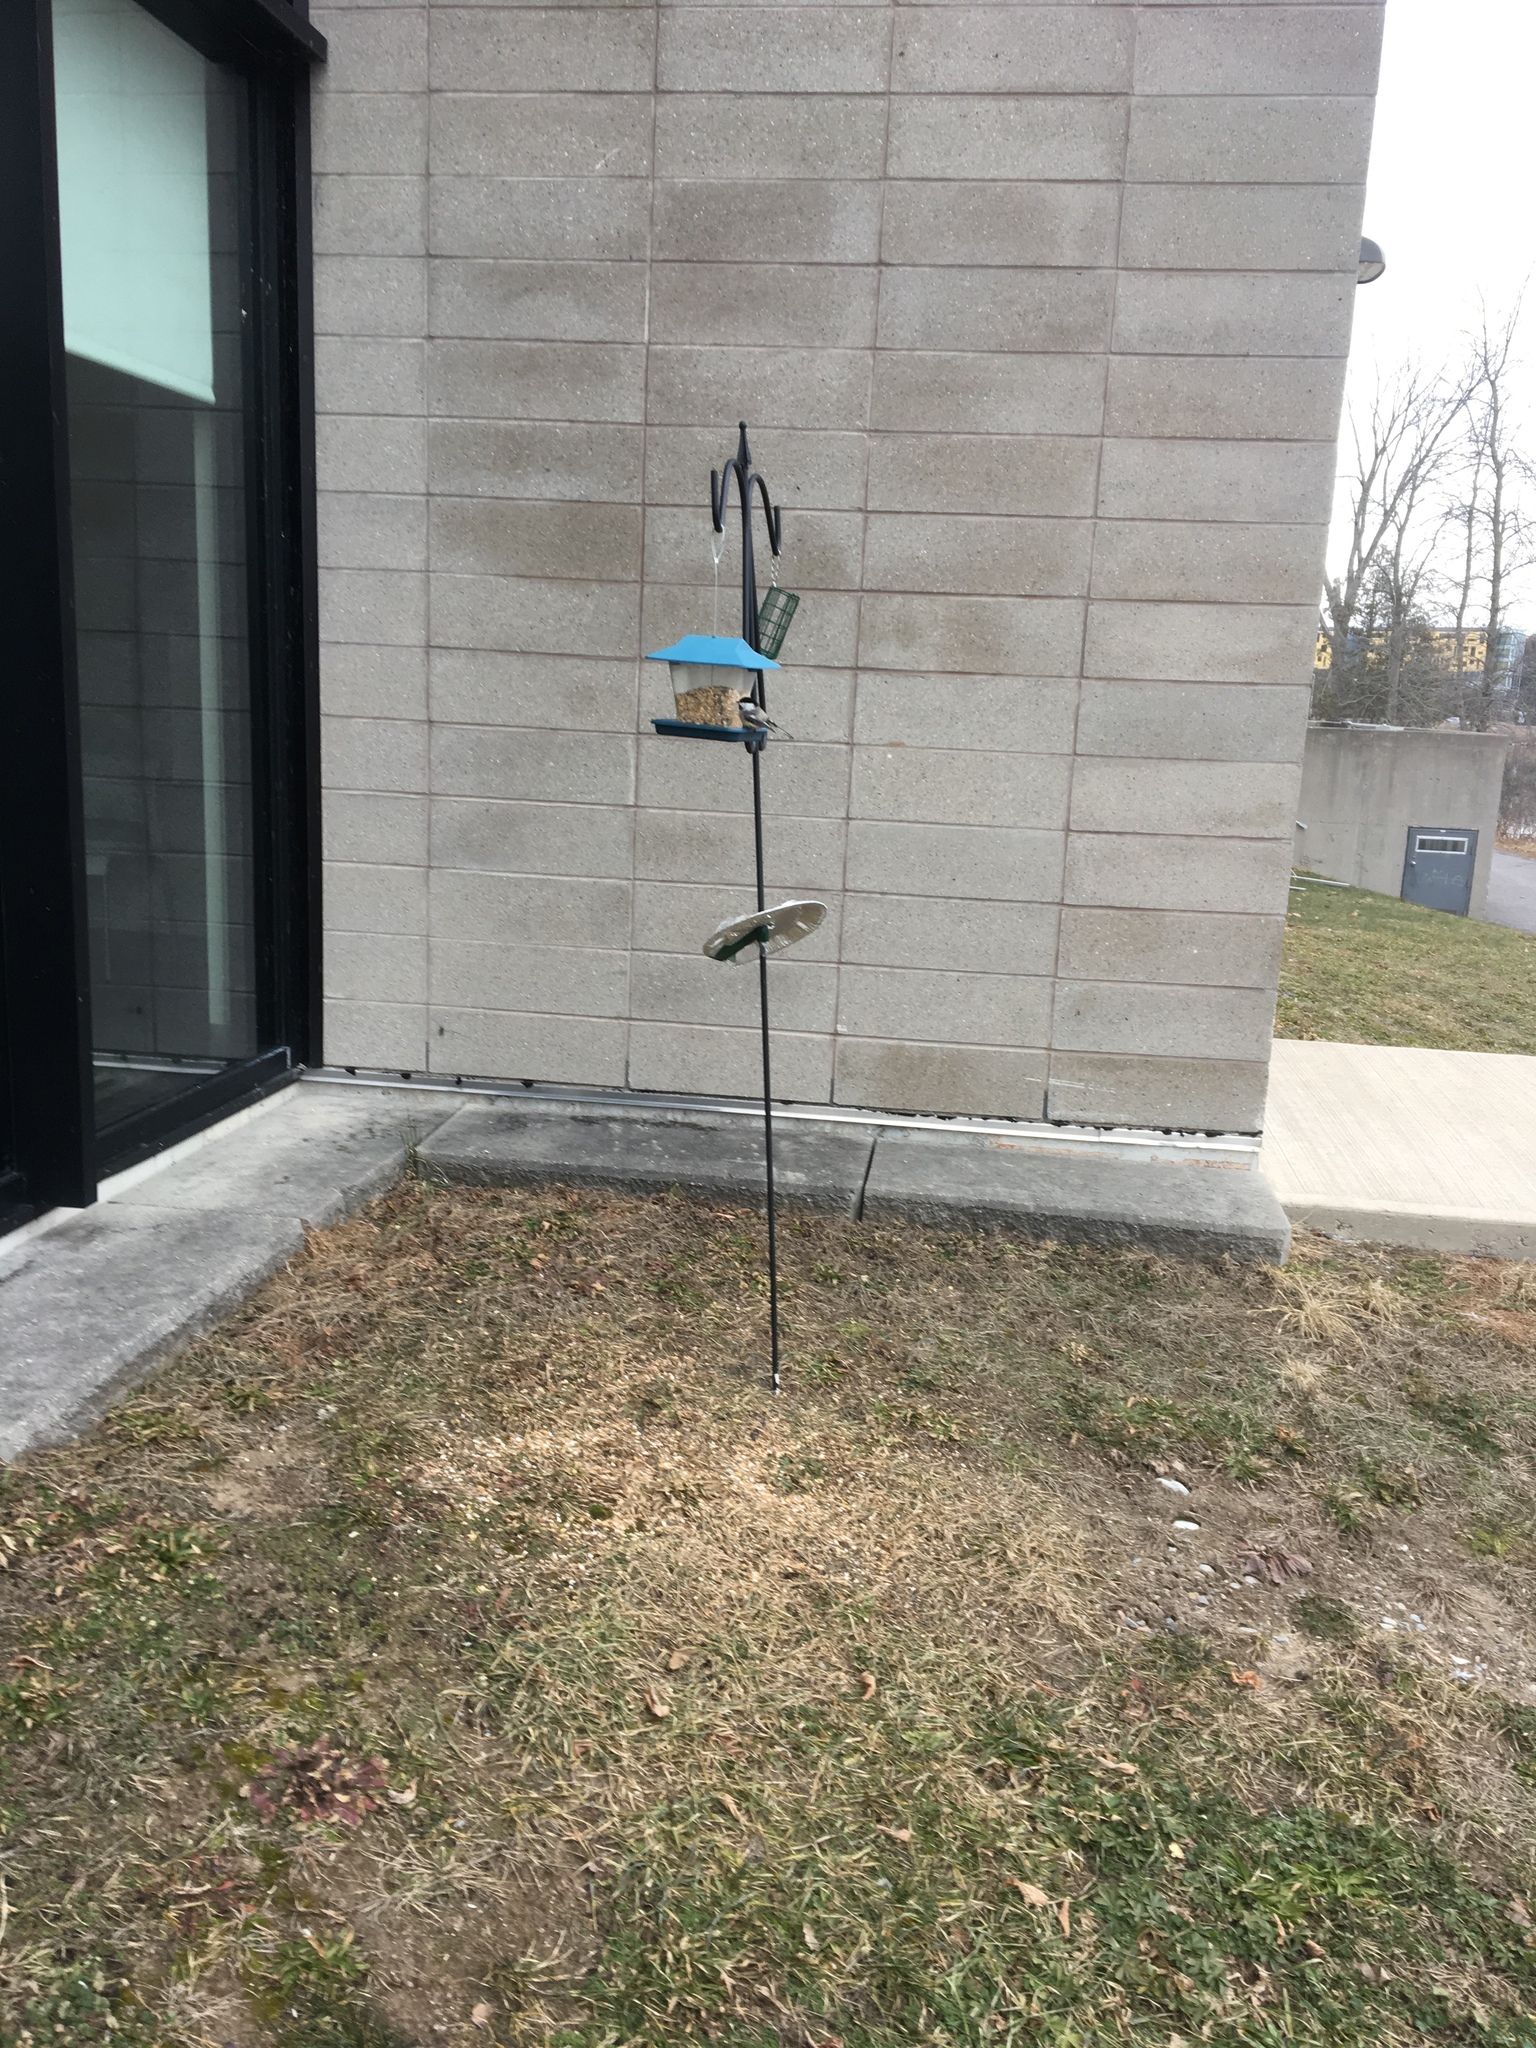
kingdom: Animalia
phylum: Chordata
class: Aves
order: Passeriformes
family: Paridae
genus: Poecile
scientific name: Poecile atricapillus
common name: Black-capped chickadee
